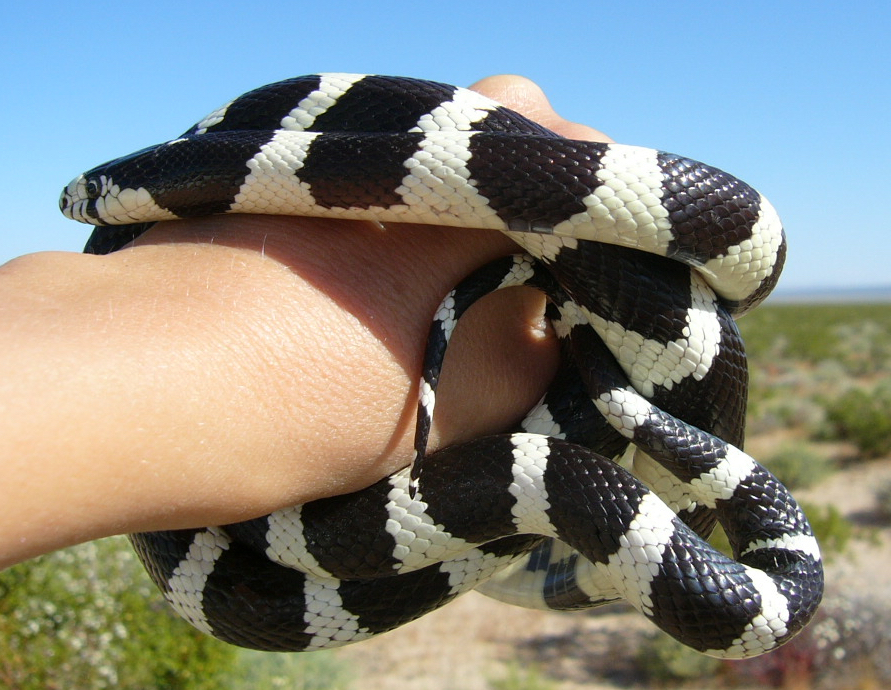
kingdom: Animalia
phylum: Chordata
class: Squamata
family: Colubridae
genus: Lampropeltis
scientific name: Lampropeltis californiae
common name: California kingsnake
